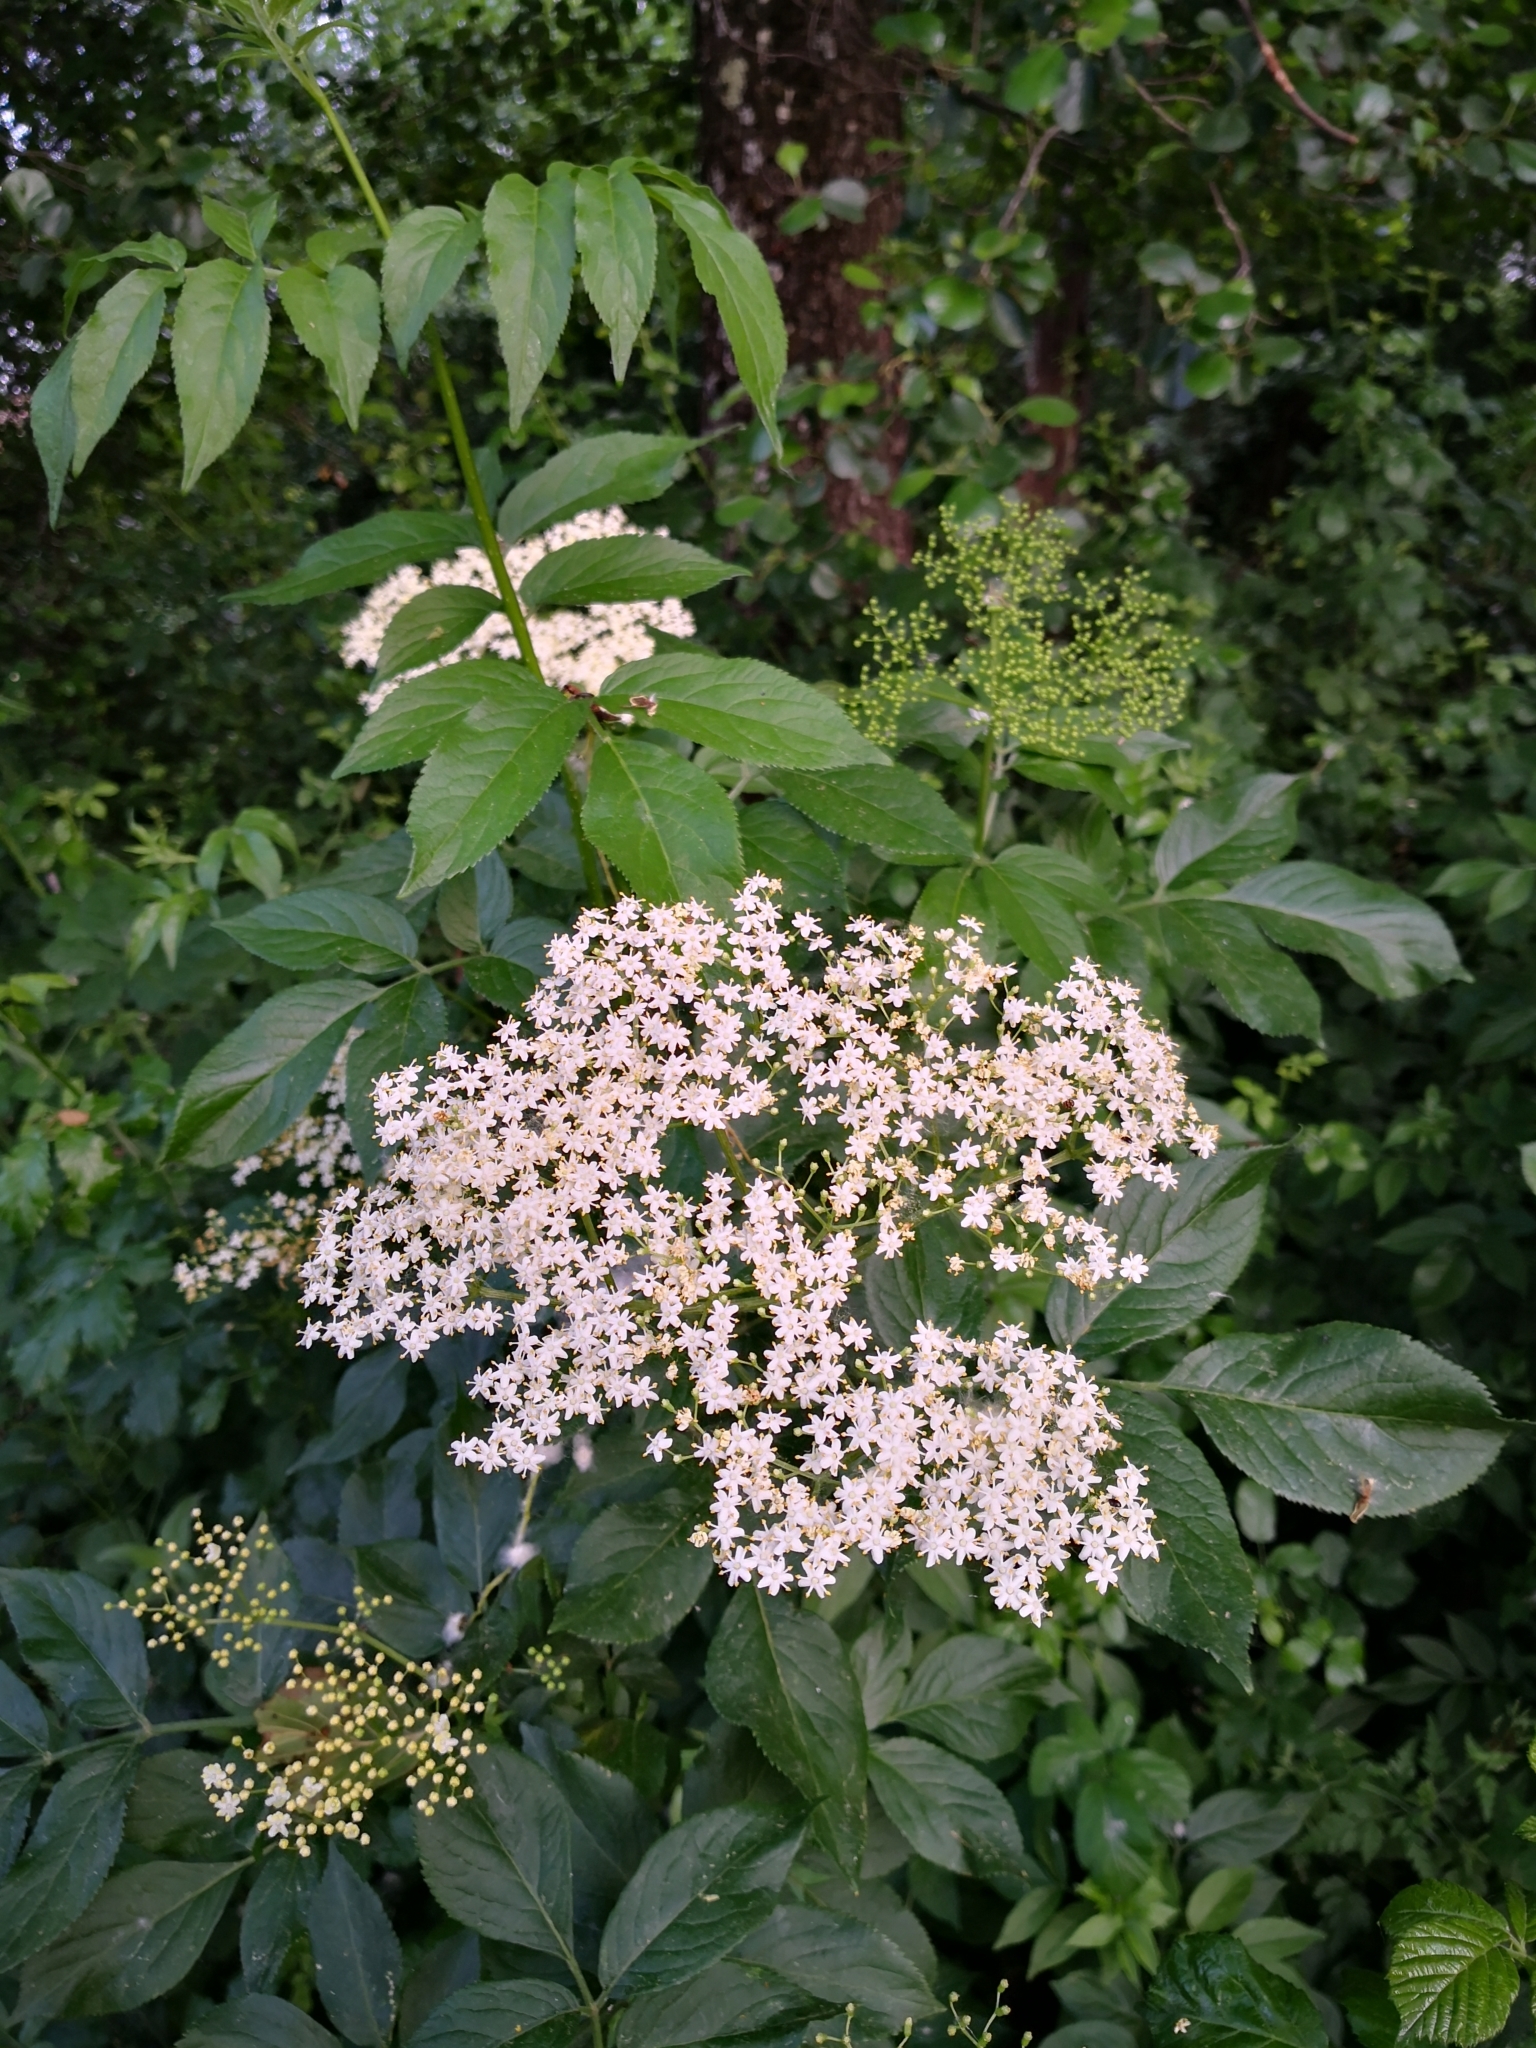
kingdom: Plantae
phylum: Tracheophyta
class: Magnoliopsida
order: Dipsacales
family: Viburnaceae
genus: Sambucus
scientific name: Sambucus nigra
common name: Elder
